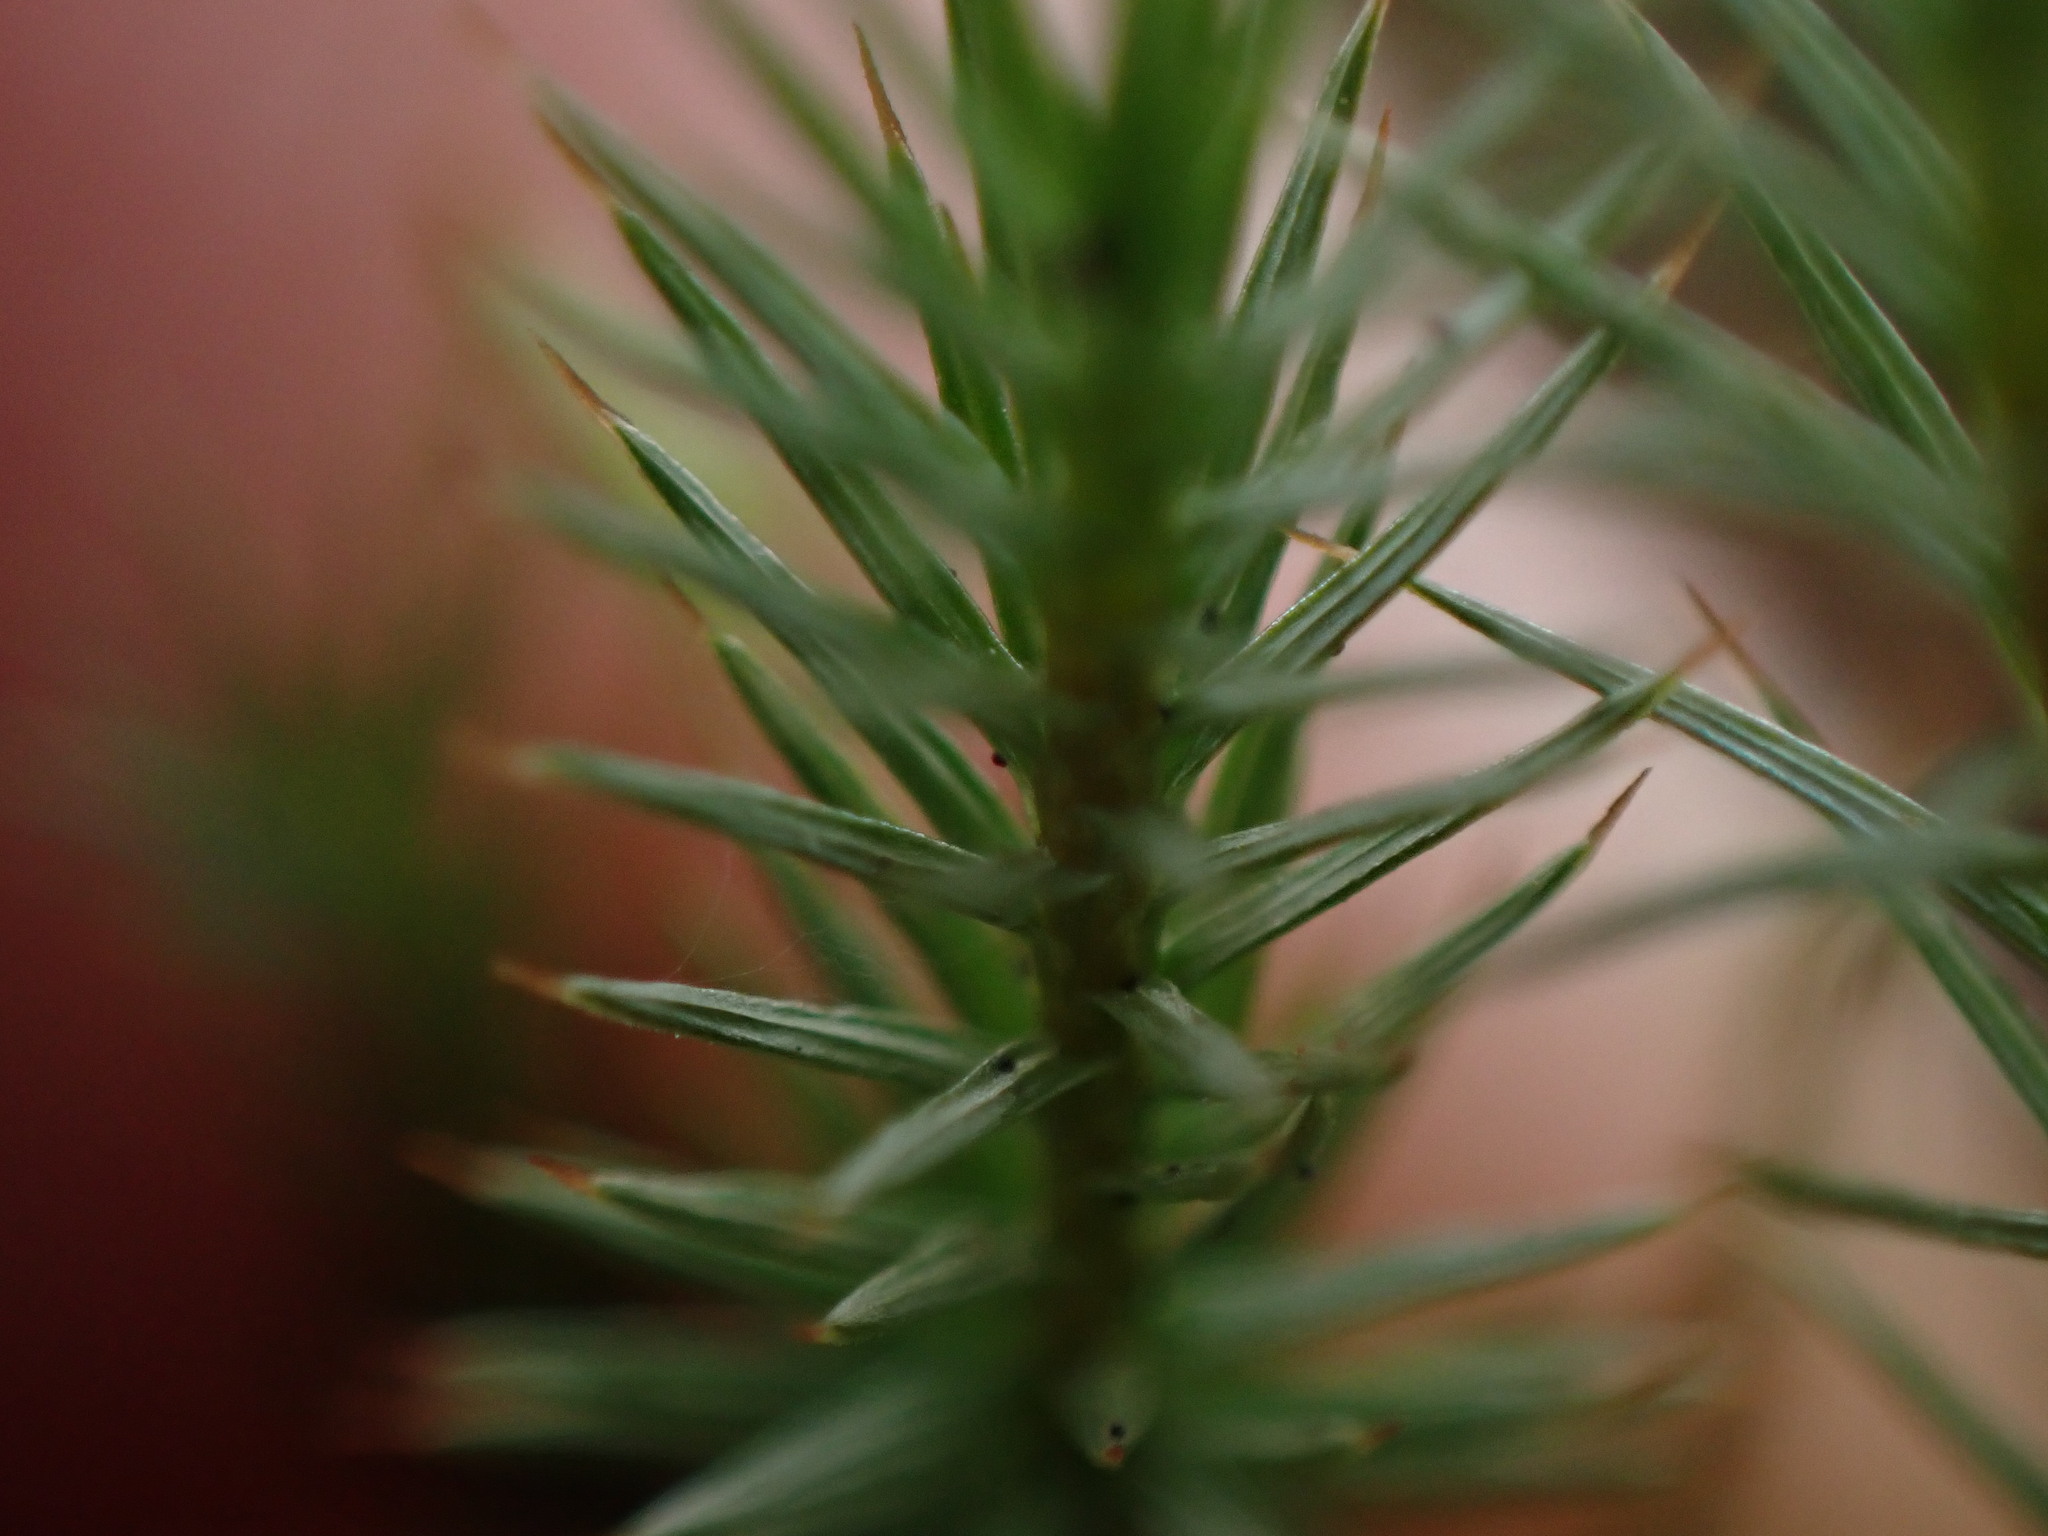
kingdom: Plantae
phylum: Bryophyta
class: Polytrichopsida
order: Polytrichales
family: Polytrichaceae
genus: Polytrichum
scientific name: Polytrichum juniperinum
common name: Juniper haircap moss
